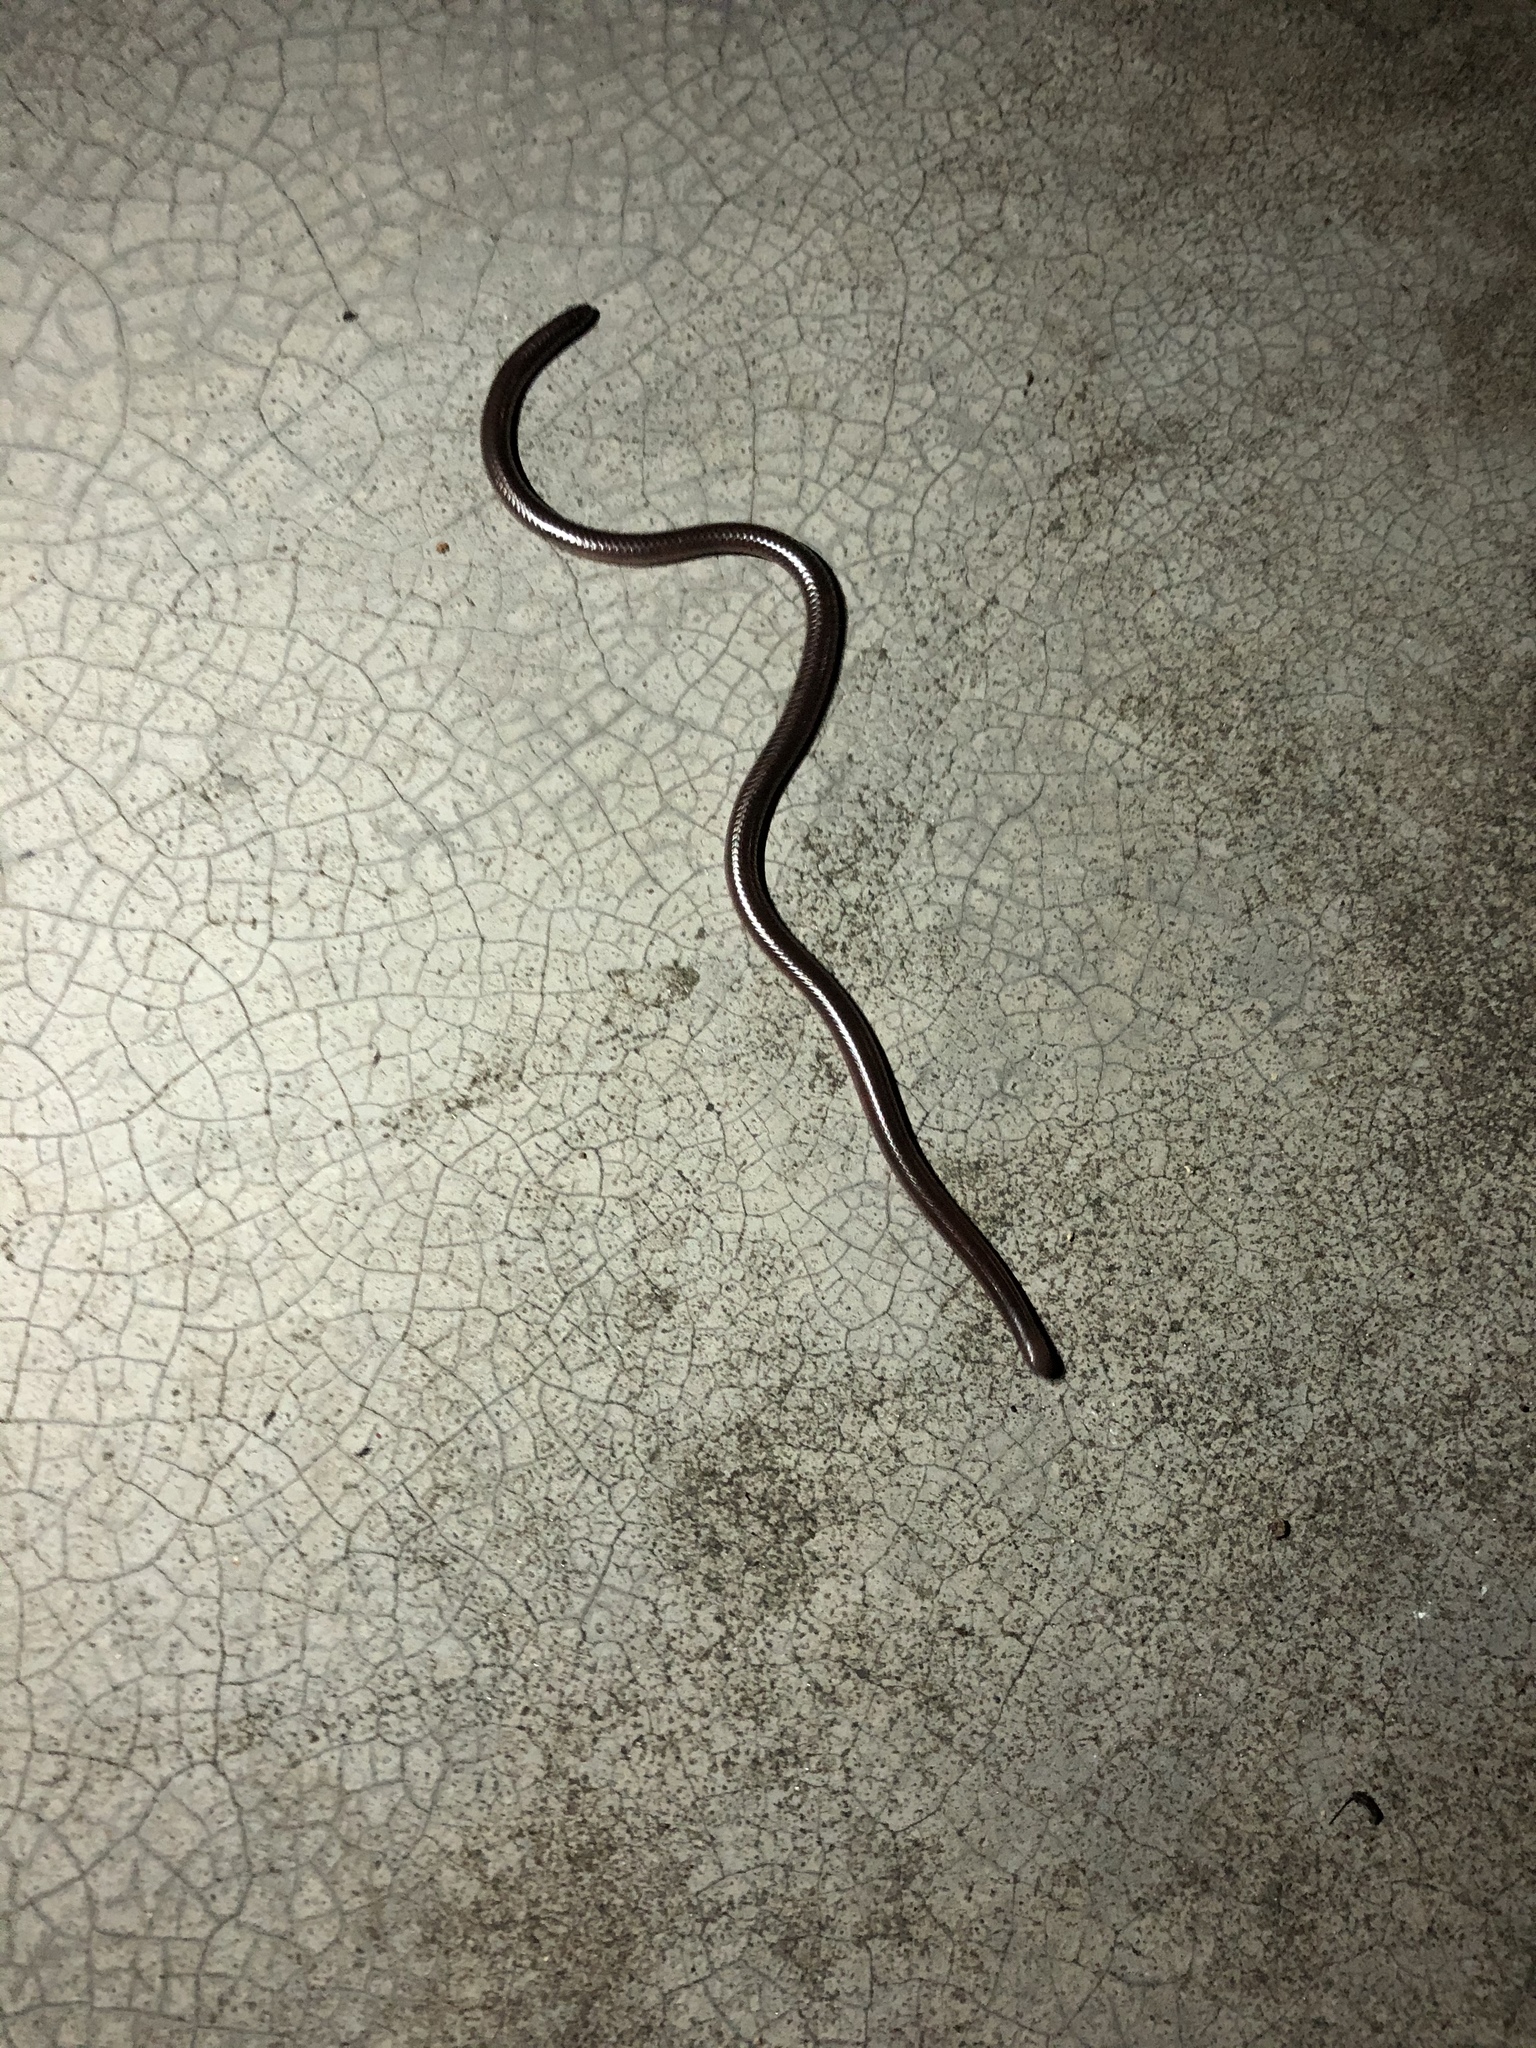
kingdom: Animalia
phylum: Chordata
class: Squamata
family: Leptotyphlopidae
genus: Rena
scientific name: Rena dulcis
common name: Texas blind snake
